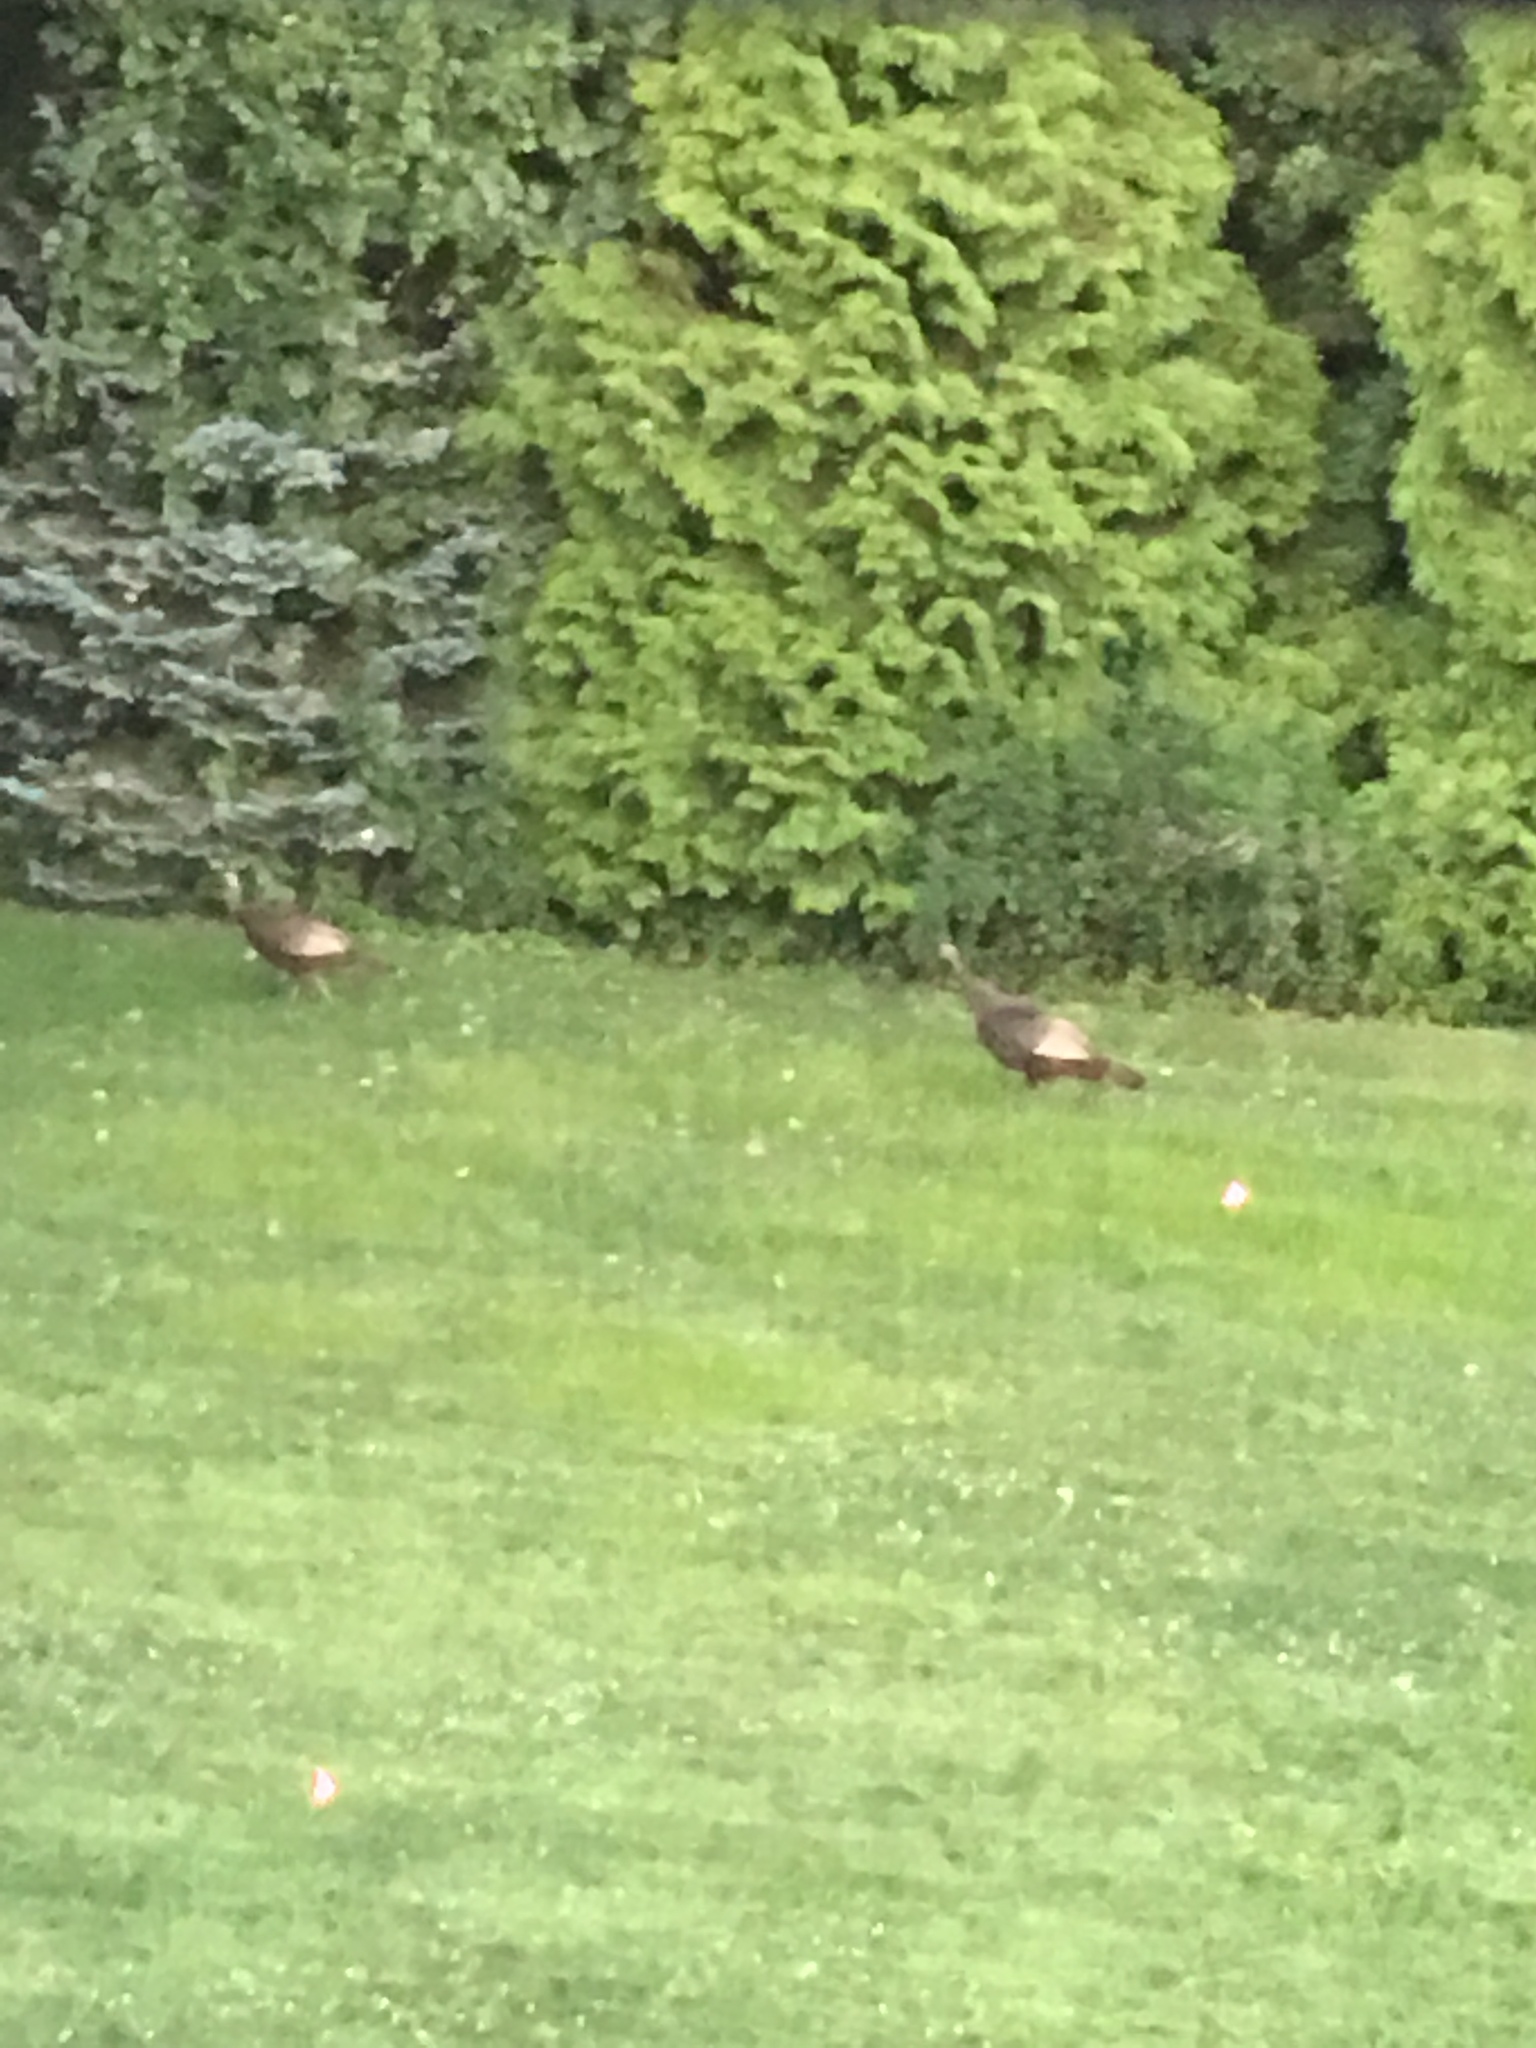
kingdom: Animalia
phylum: Chordata
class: Aves
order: Galliformes
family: Phasianidae
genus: Meleagris
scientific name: Meleagris gallopavo
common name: Wild turkey
